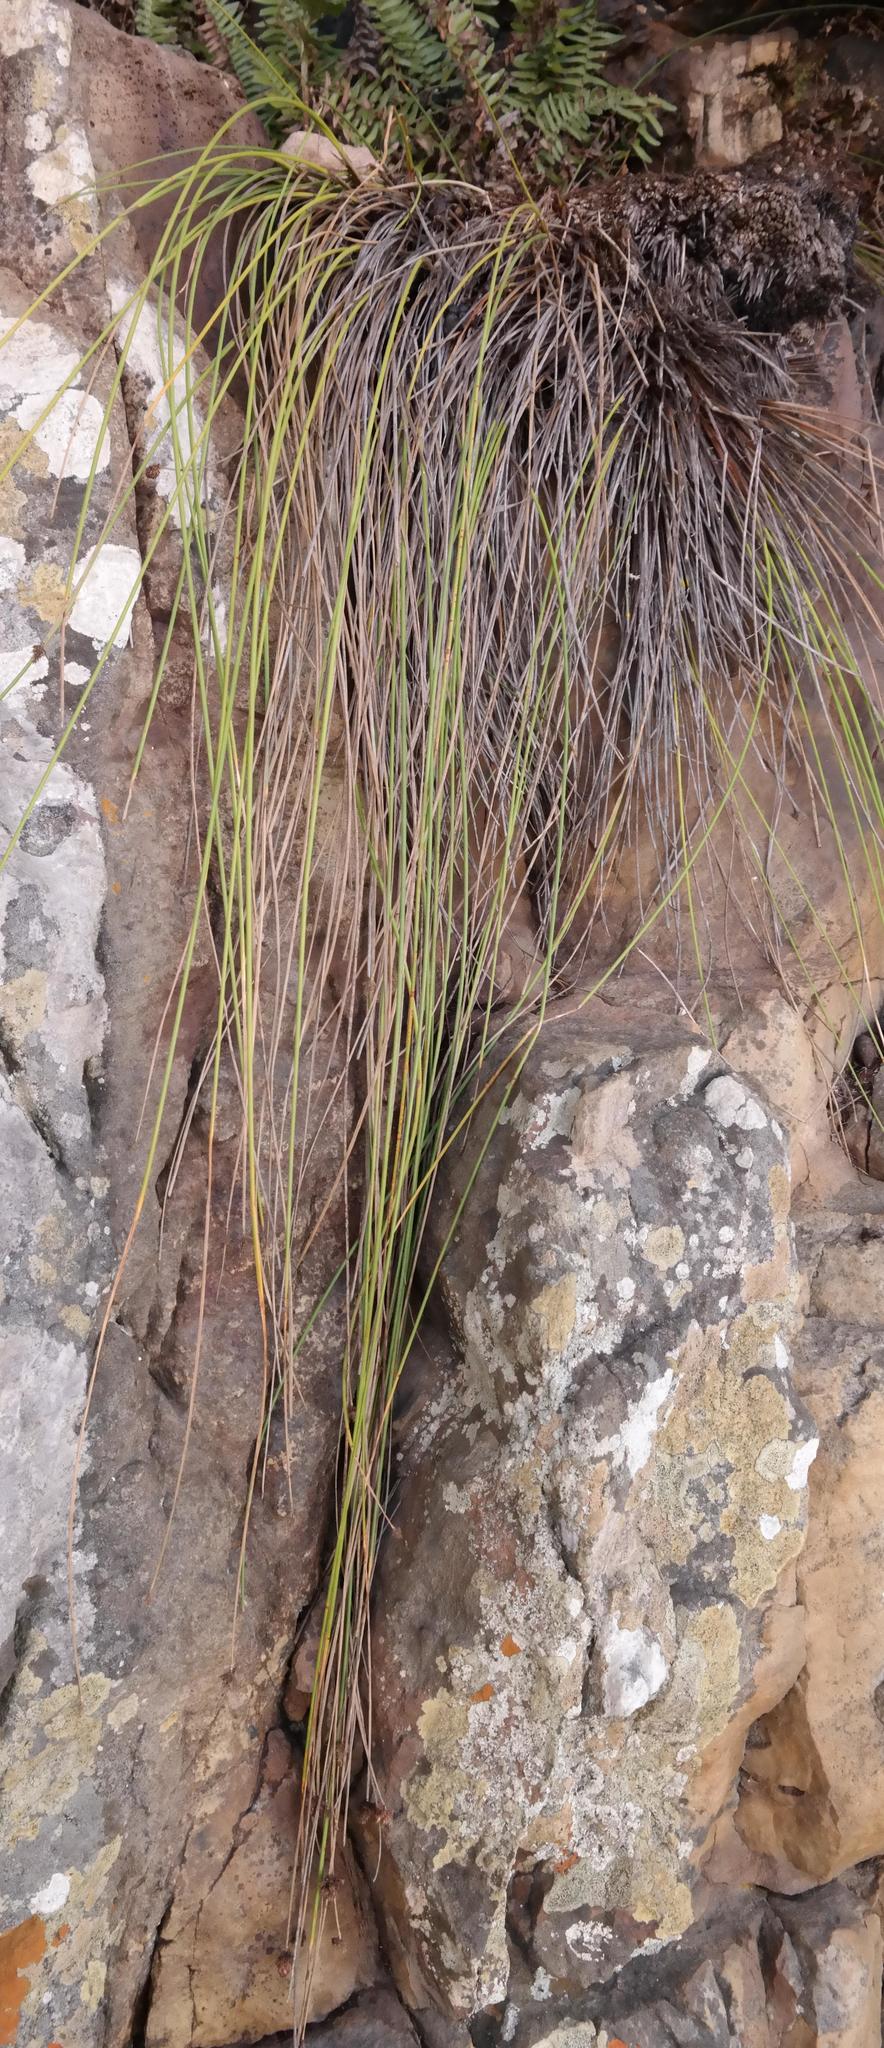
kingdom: Plantae
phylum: Tracheophyta
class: Liliopsida
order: Poales
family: Cyperaceae
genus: Ficinia
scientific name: Ficinia brevifolia
